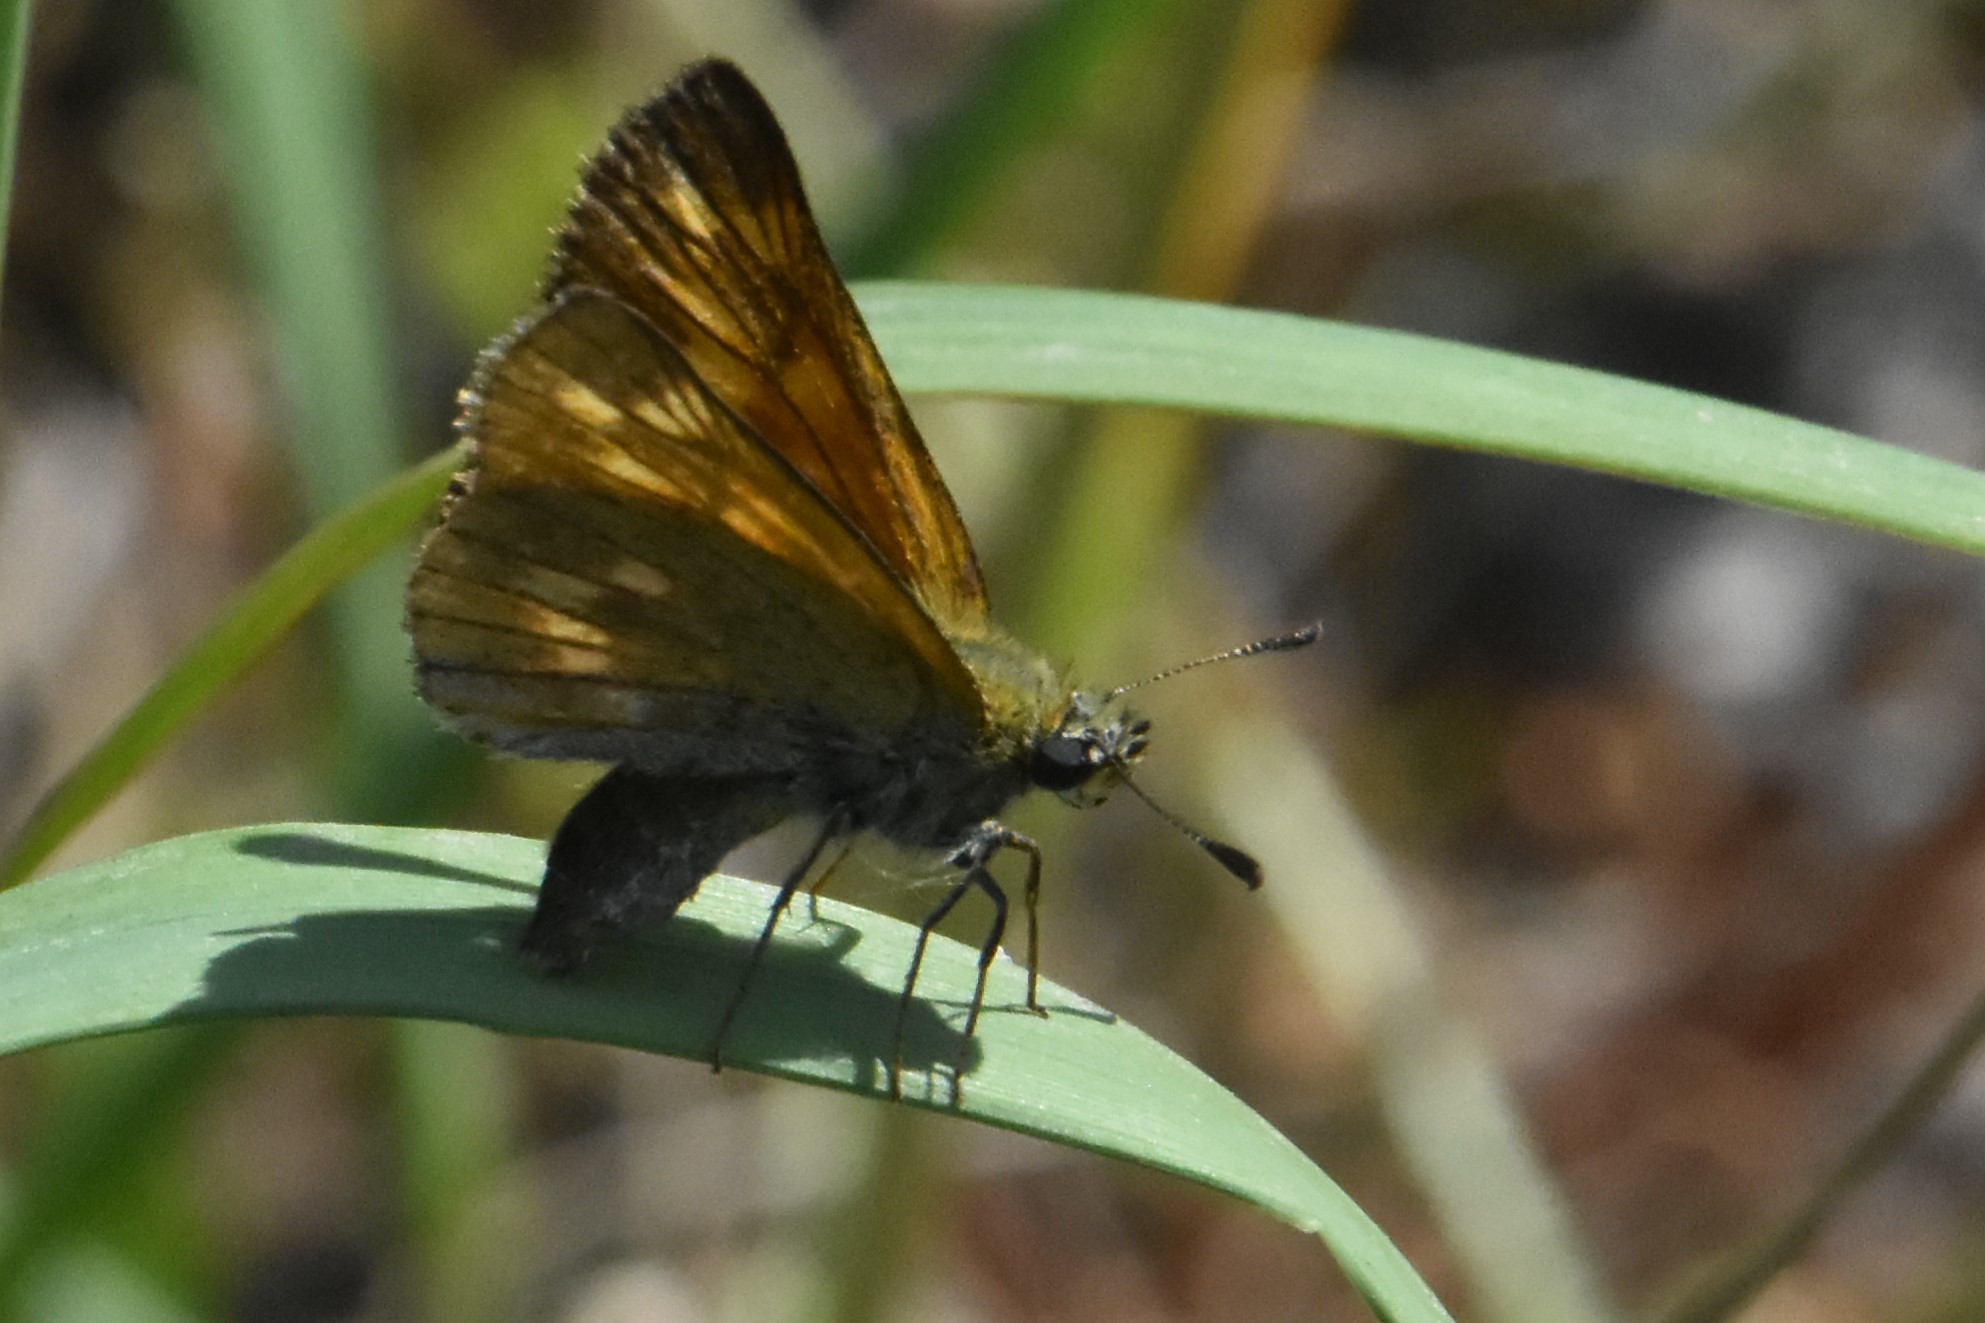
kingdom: Animalia
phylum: Arthropoda
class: Insecta
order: Lepidoptera
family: Hesperiidae
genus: Ochlodes
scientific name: Ochlodes venata
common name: Large skipper
